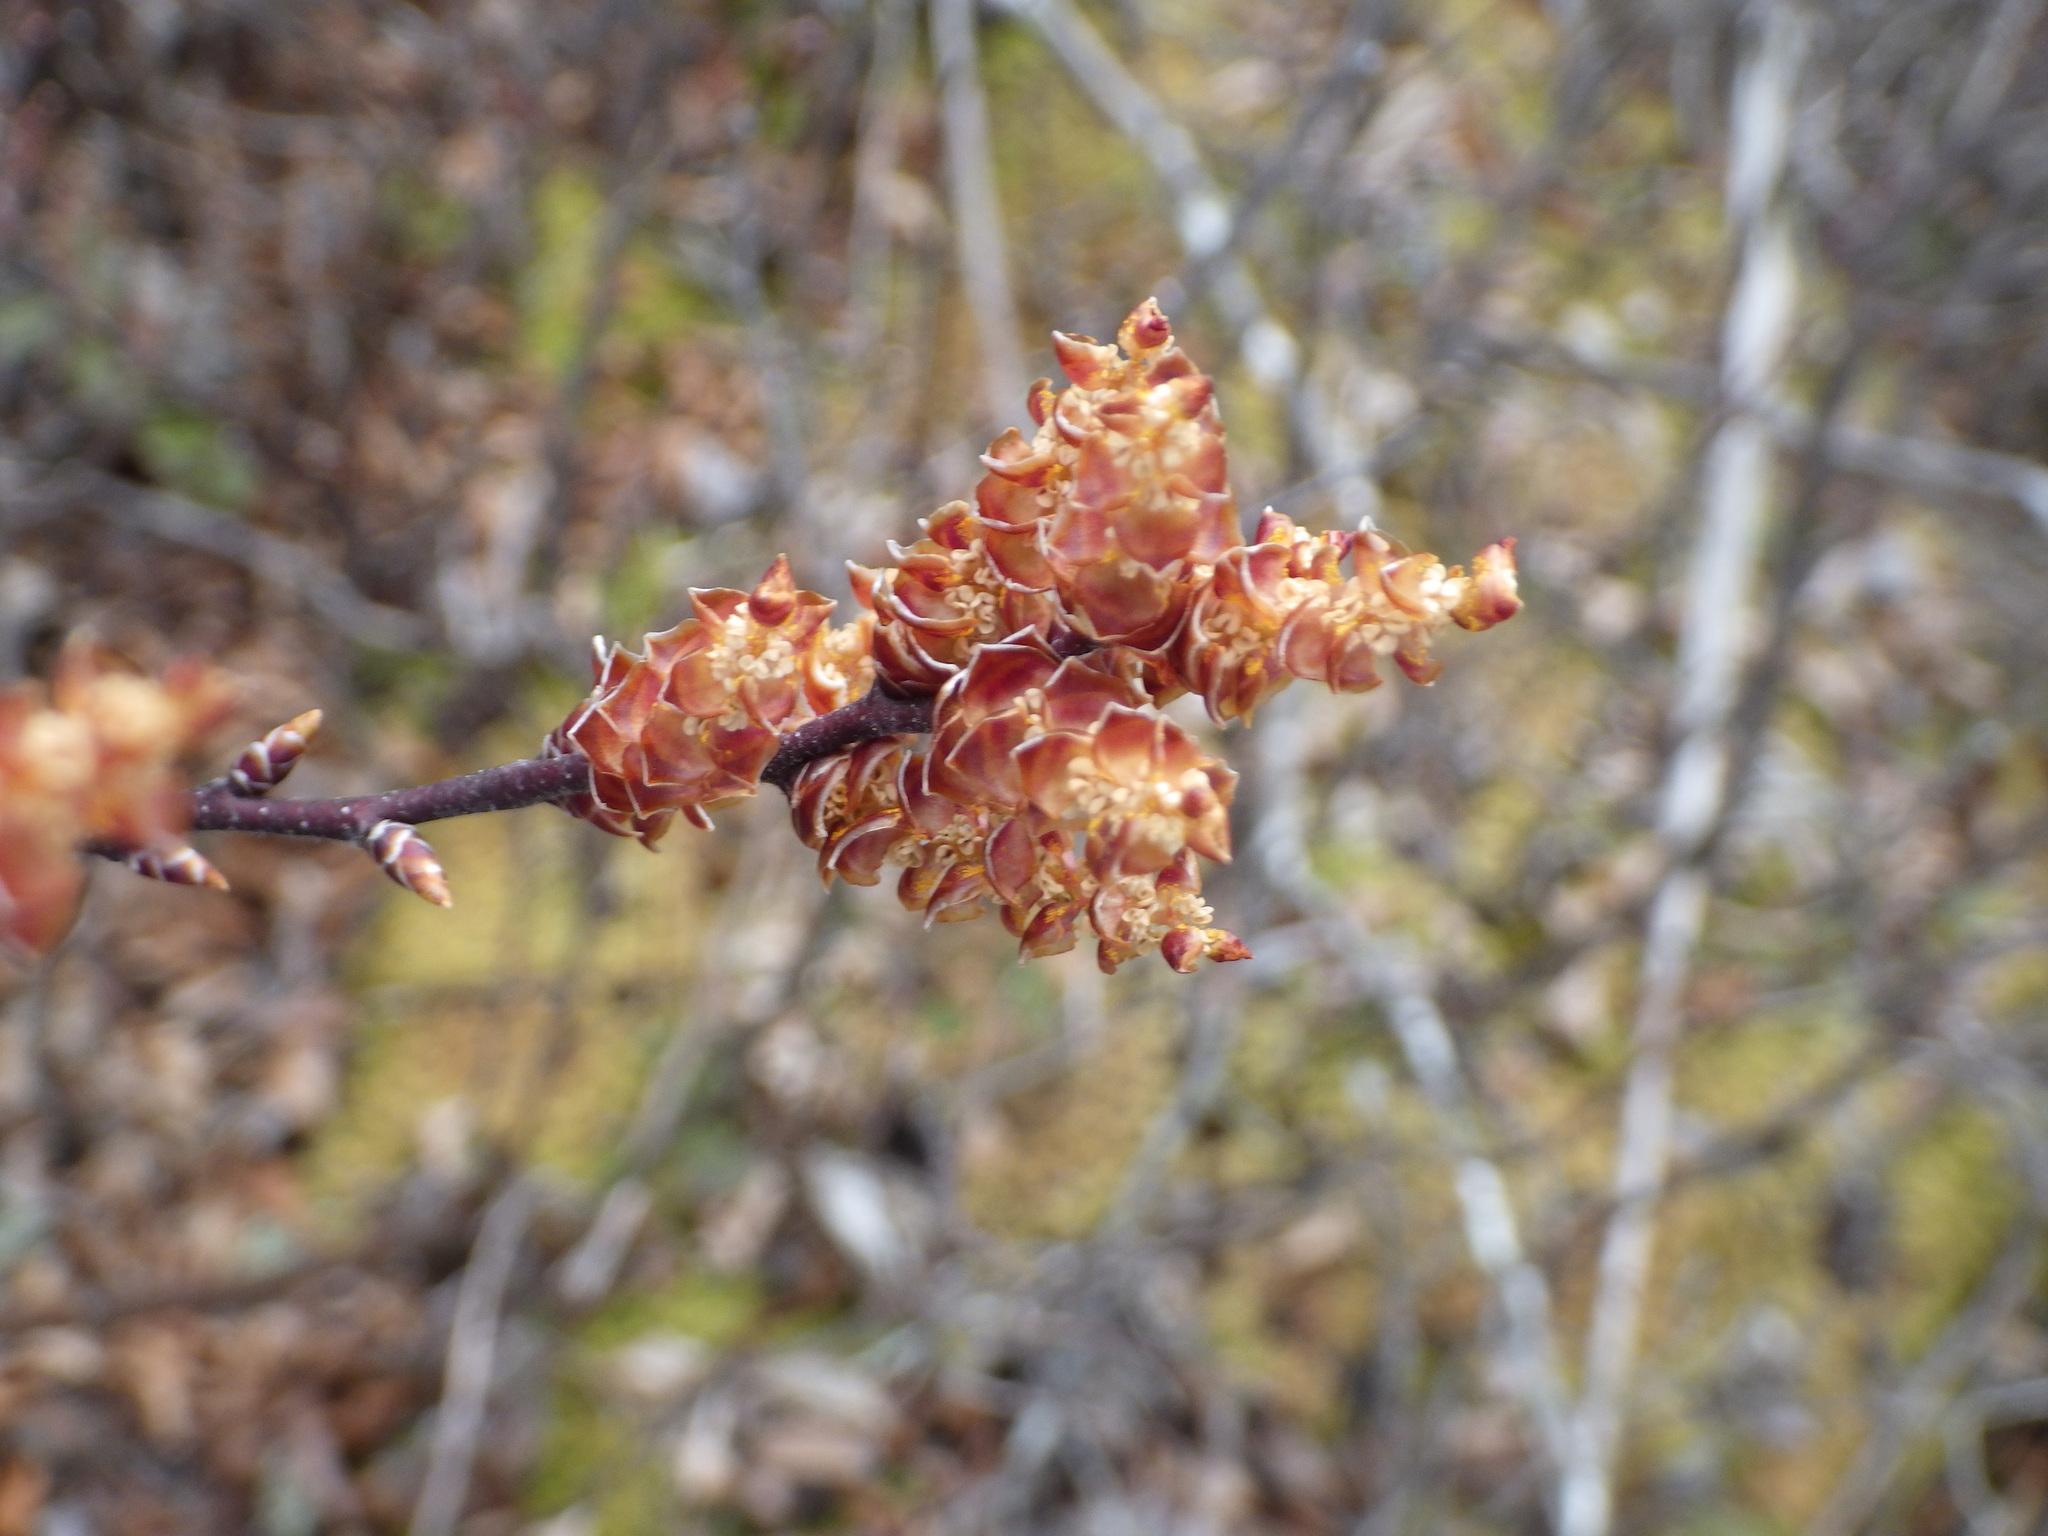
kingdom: Plantae
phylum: Tracheophyta
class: Magnoliopsida
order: Fagales
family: Myricaceae
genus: Myrica
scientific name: Myrica gale
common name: Sweet gale
